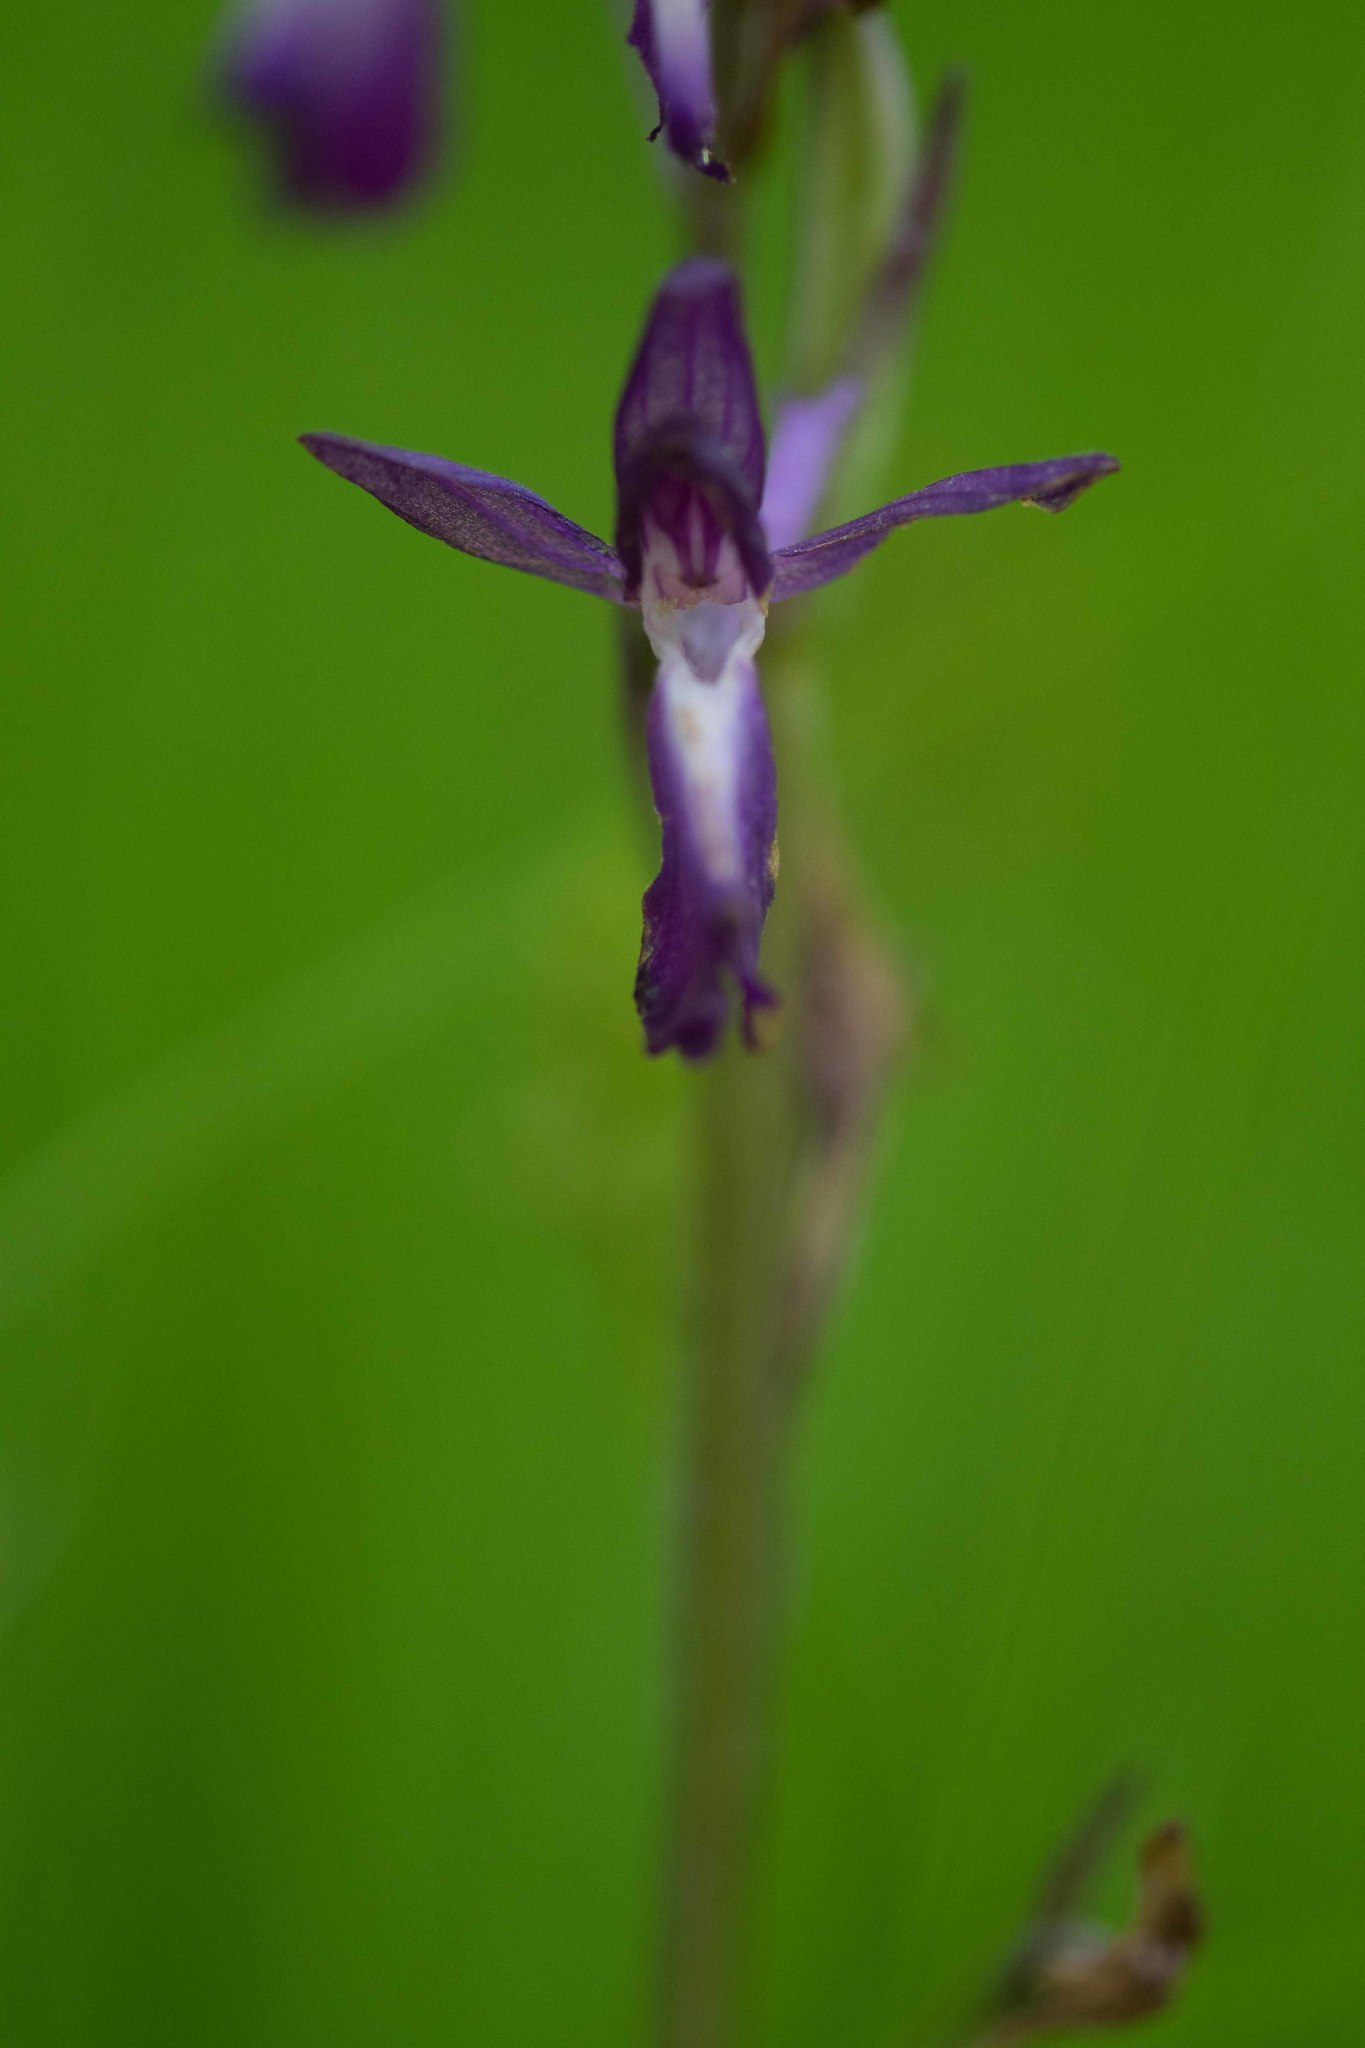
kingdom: Plantae
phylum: Tracheophyta
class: Liliopsida
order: Asparagales
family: Orchidaceae
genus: Anacamptis
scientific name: Anacamptis laxiflora
